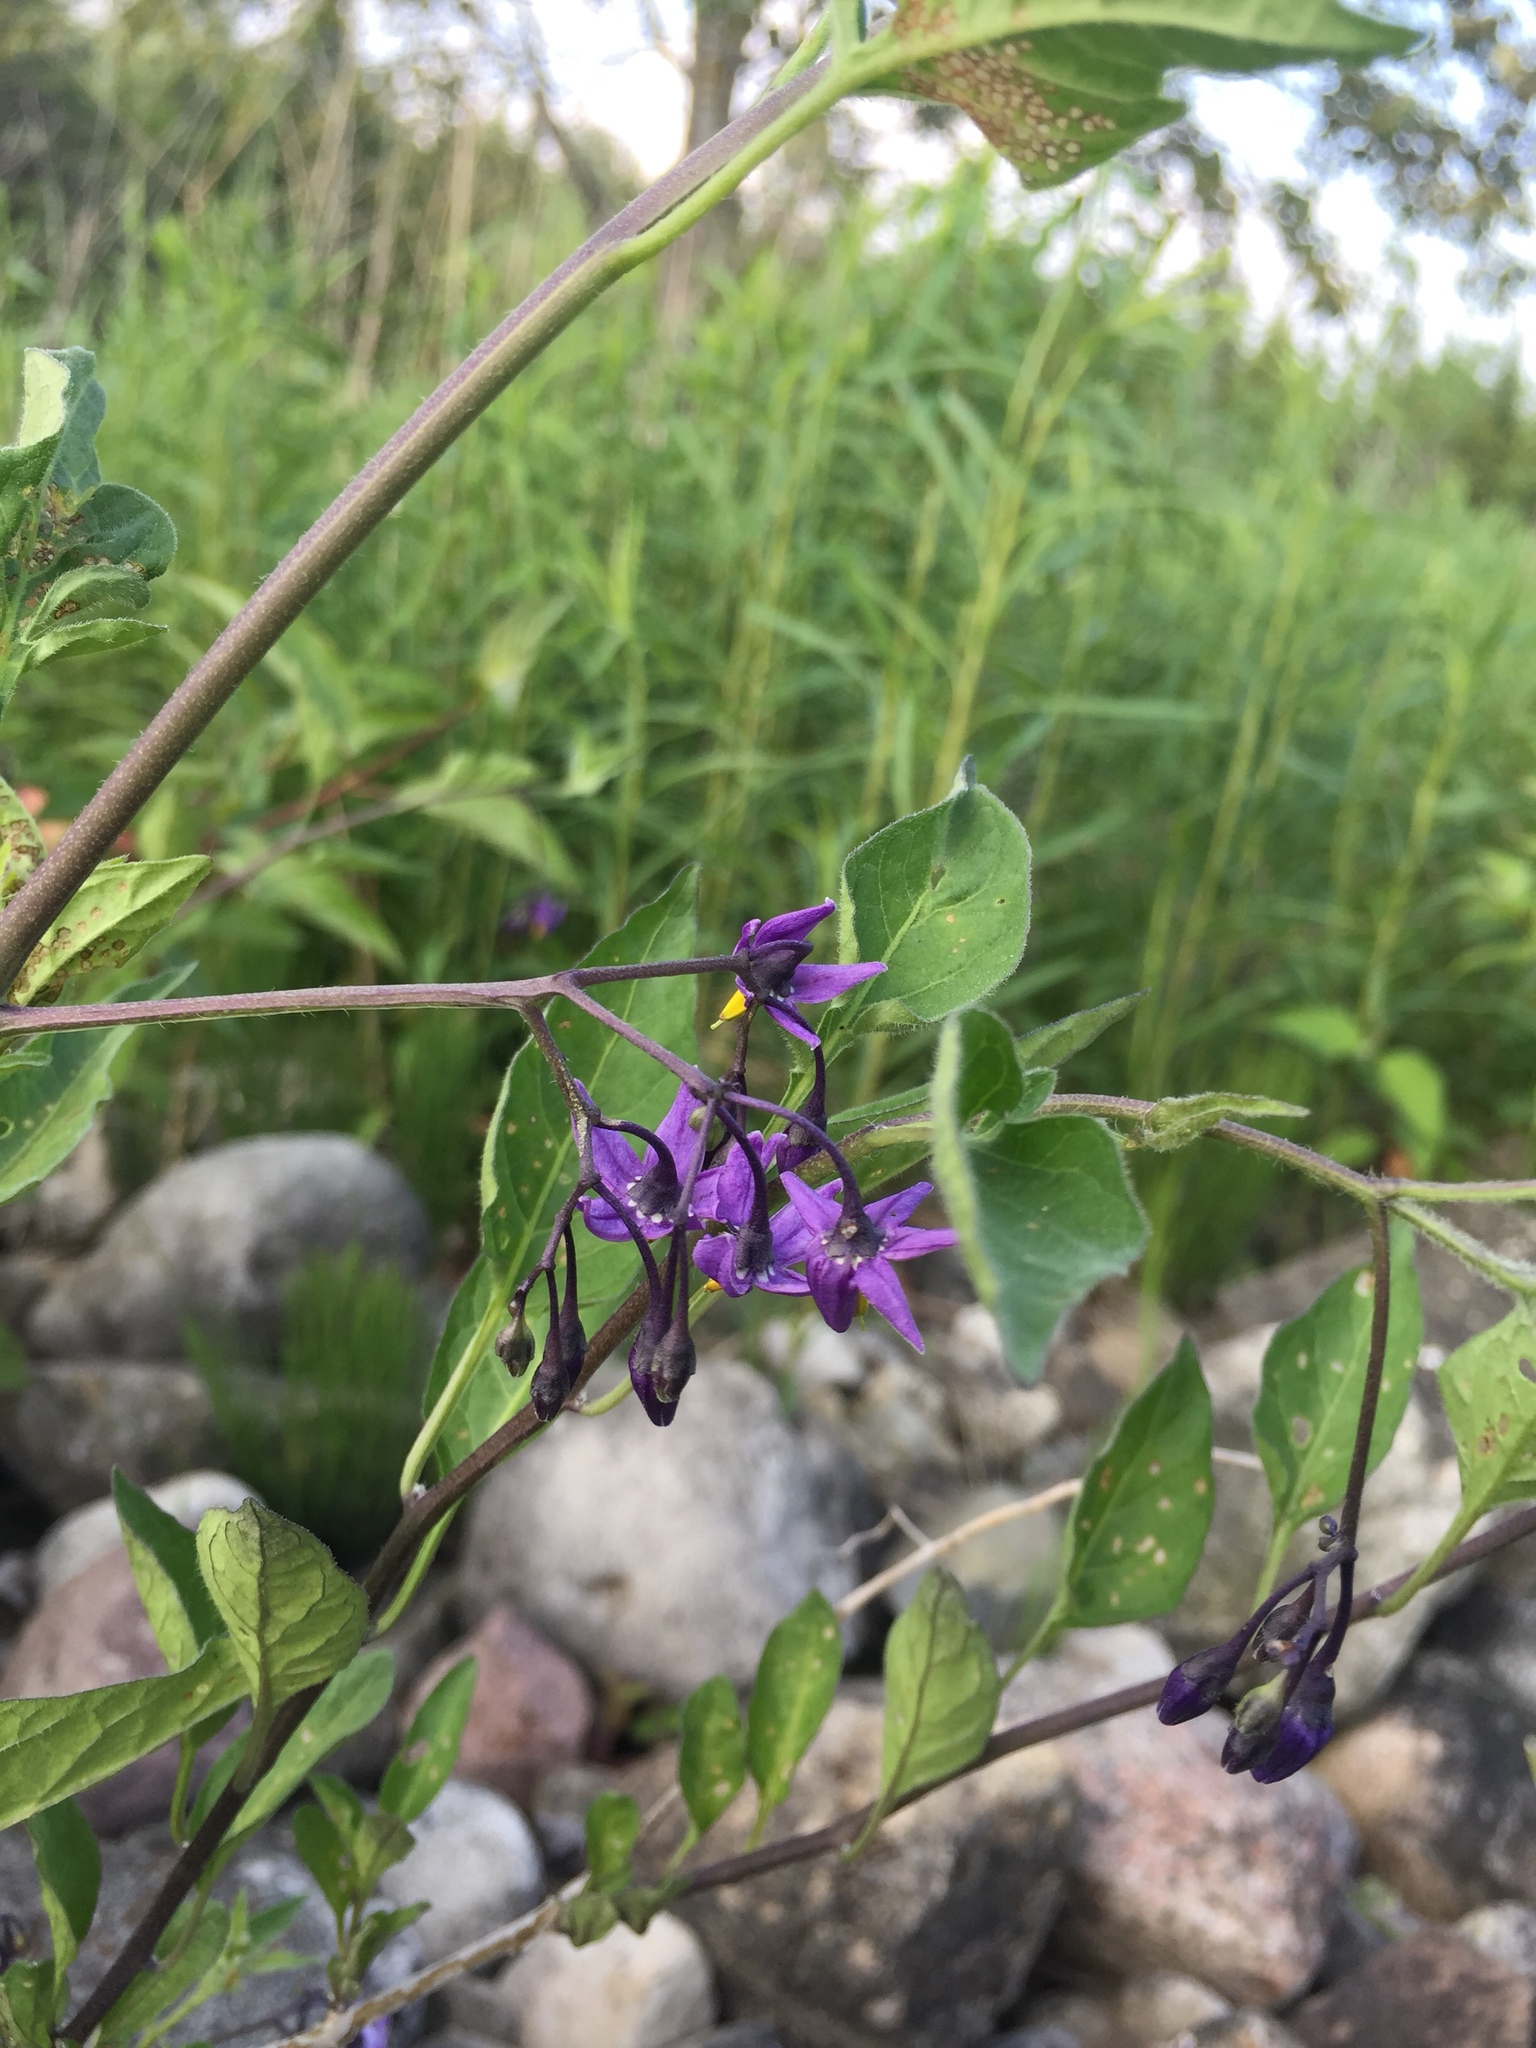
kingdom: Plantae
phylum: Tracheophyta
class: Magnoliopsida
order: Solanales
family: Solanaceae
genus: Solanum
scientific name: Solanum dulcamara
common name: Climbing nightshade
